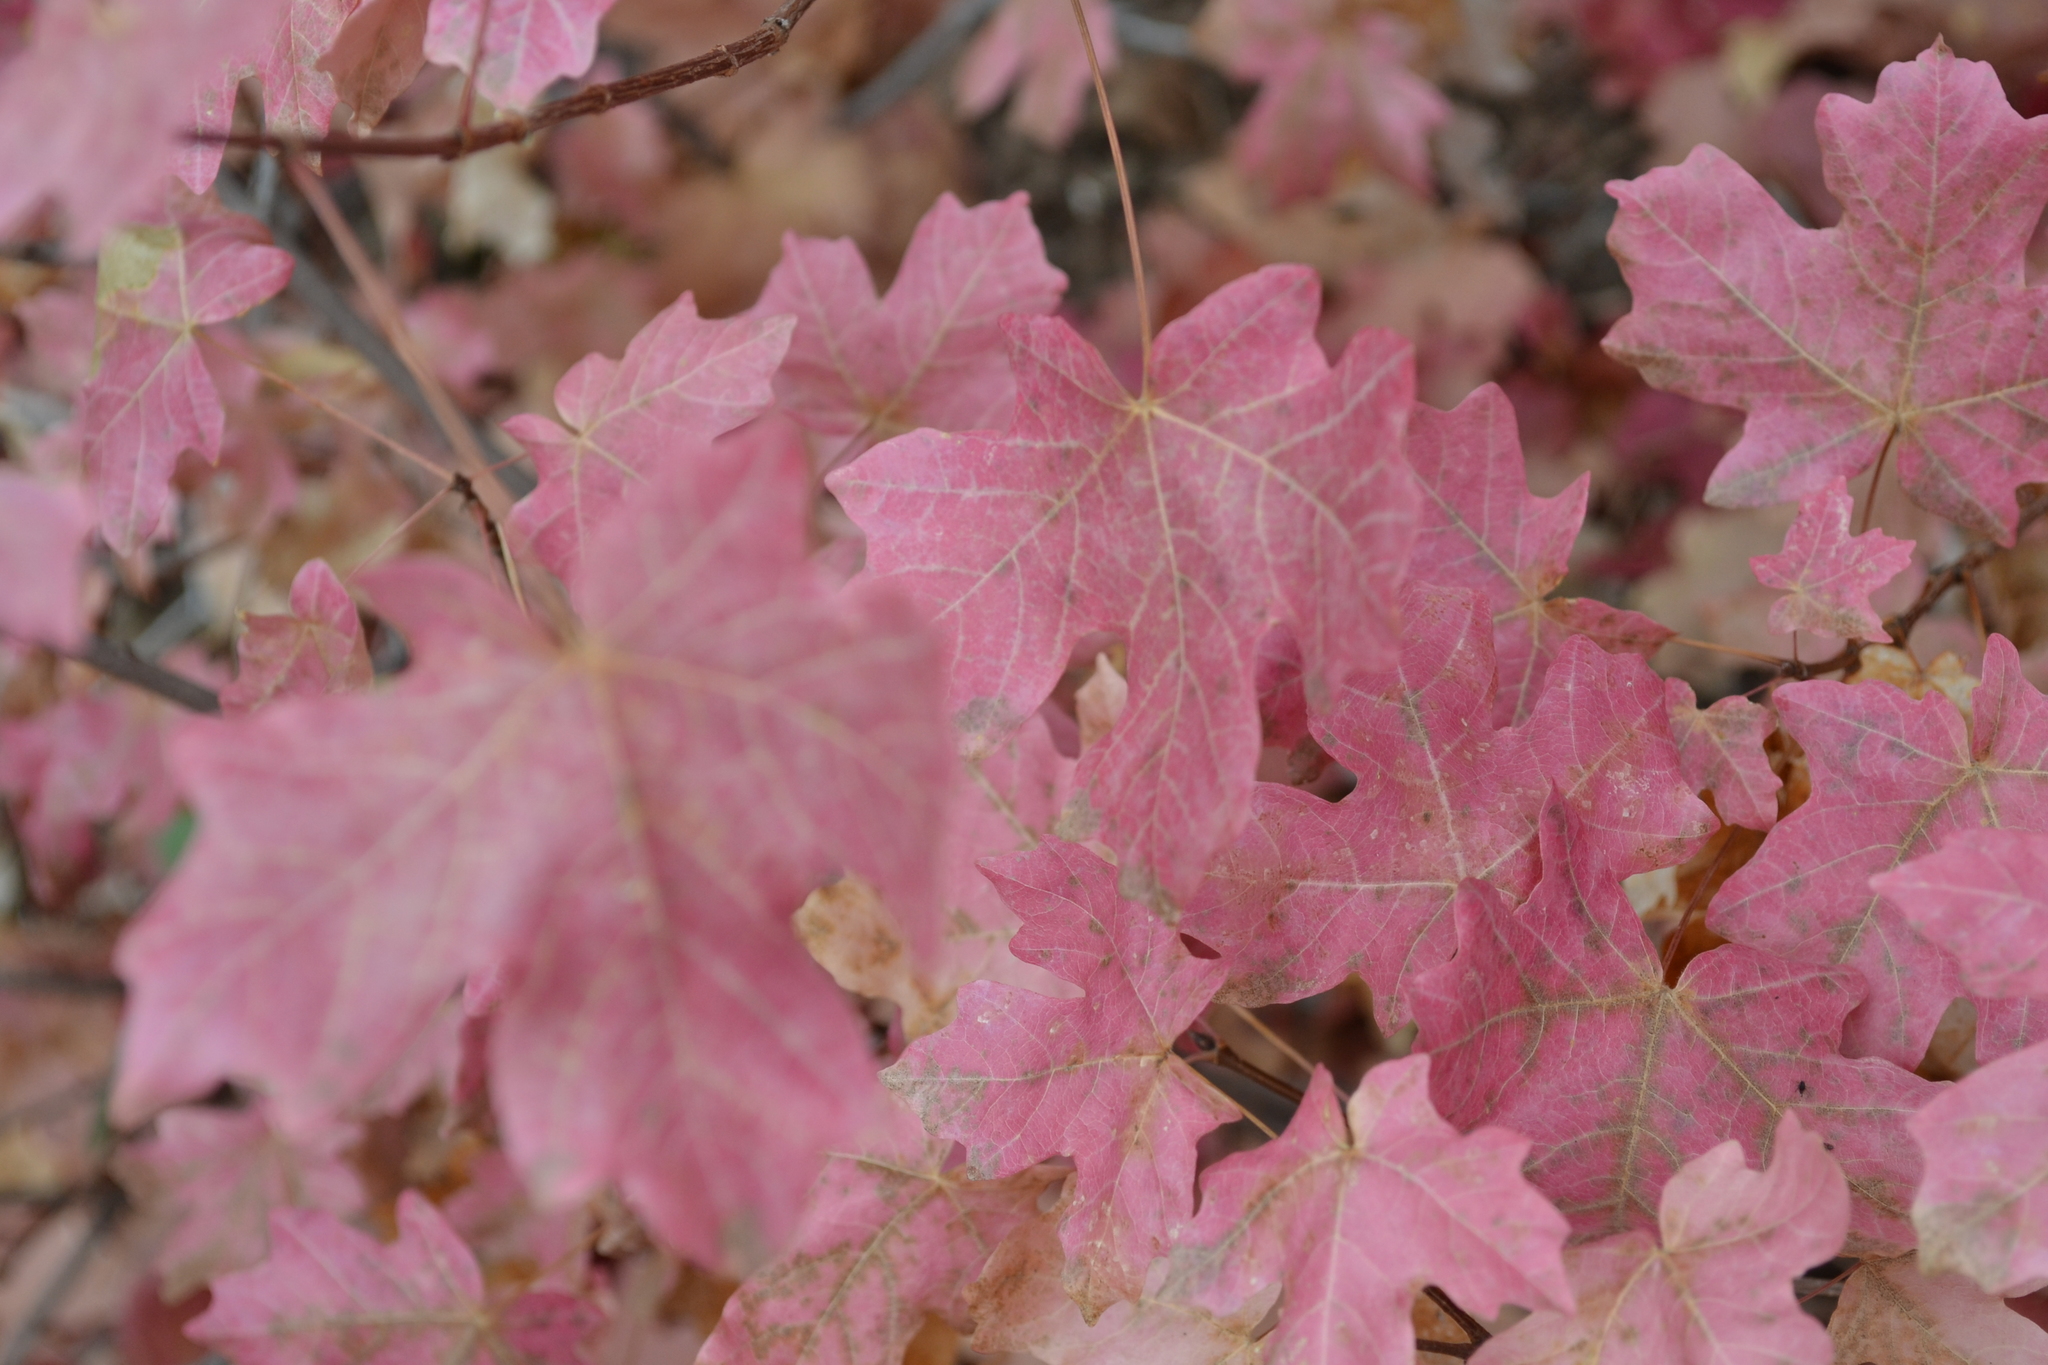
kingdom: Plantae
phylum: Tracheophyta
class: Magnoliopsida
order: Sapindales
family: Sapindaceae
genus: Acer
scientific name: Acer grandidentatum
